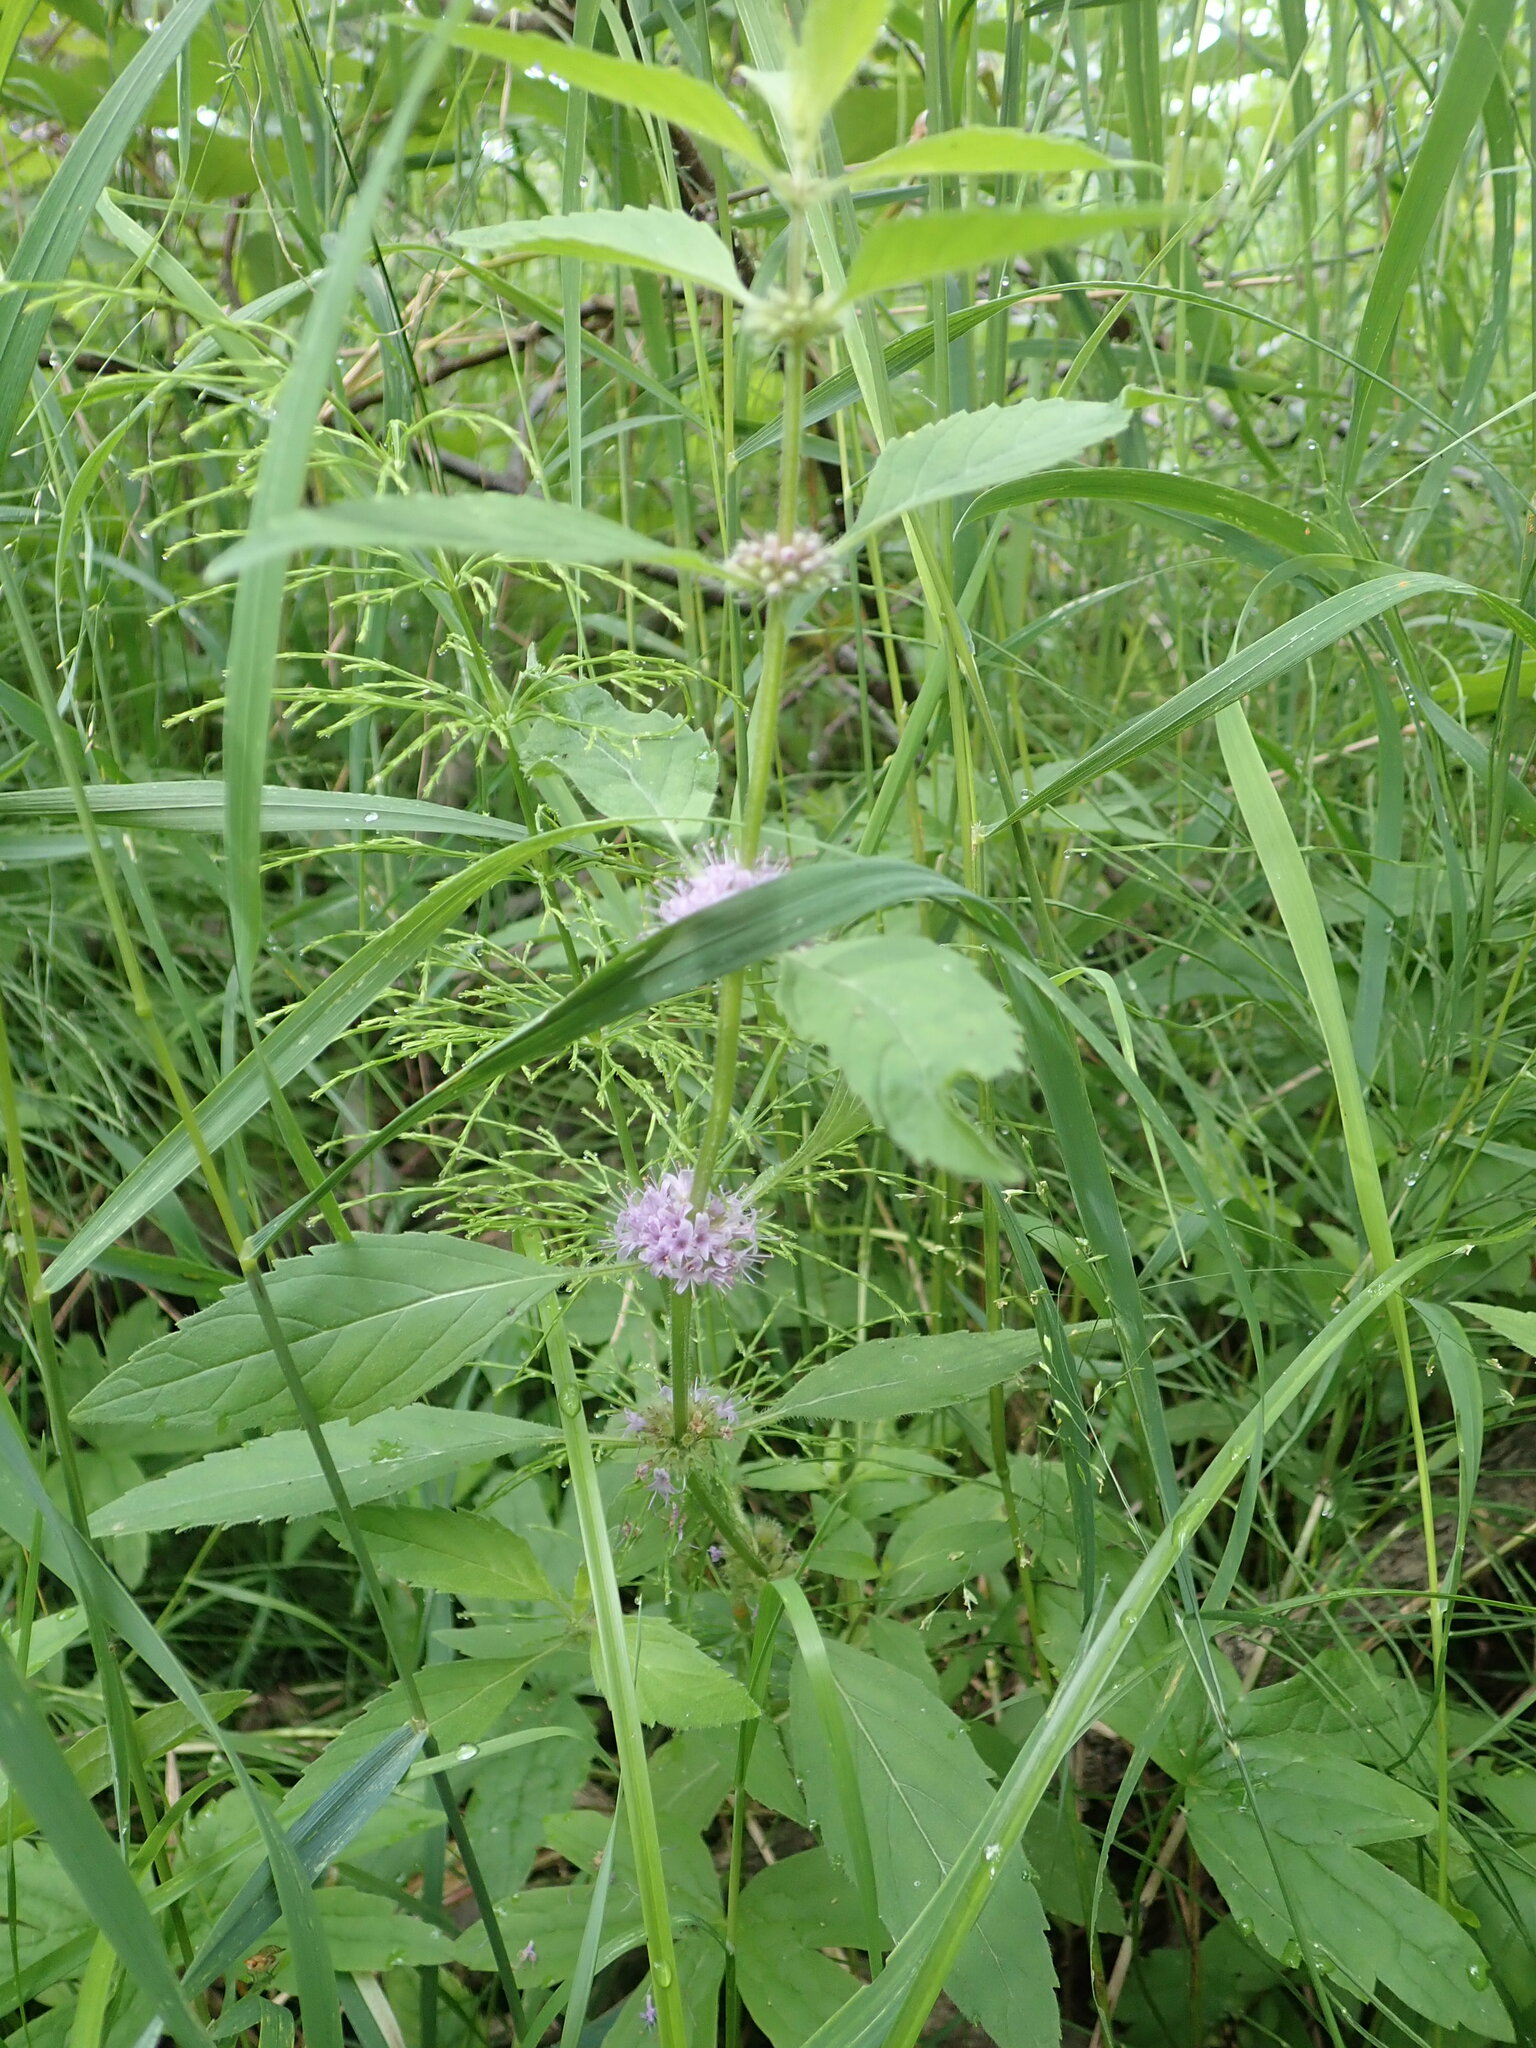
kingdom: Plantae
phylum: Tracheophyta
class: Magnoliopsida
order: Lamiales
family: Lamiaceae
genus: Mentha
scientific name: Mentha canadensis
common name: American corn mint
